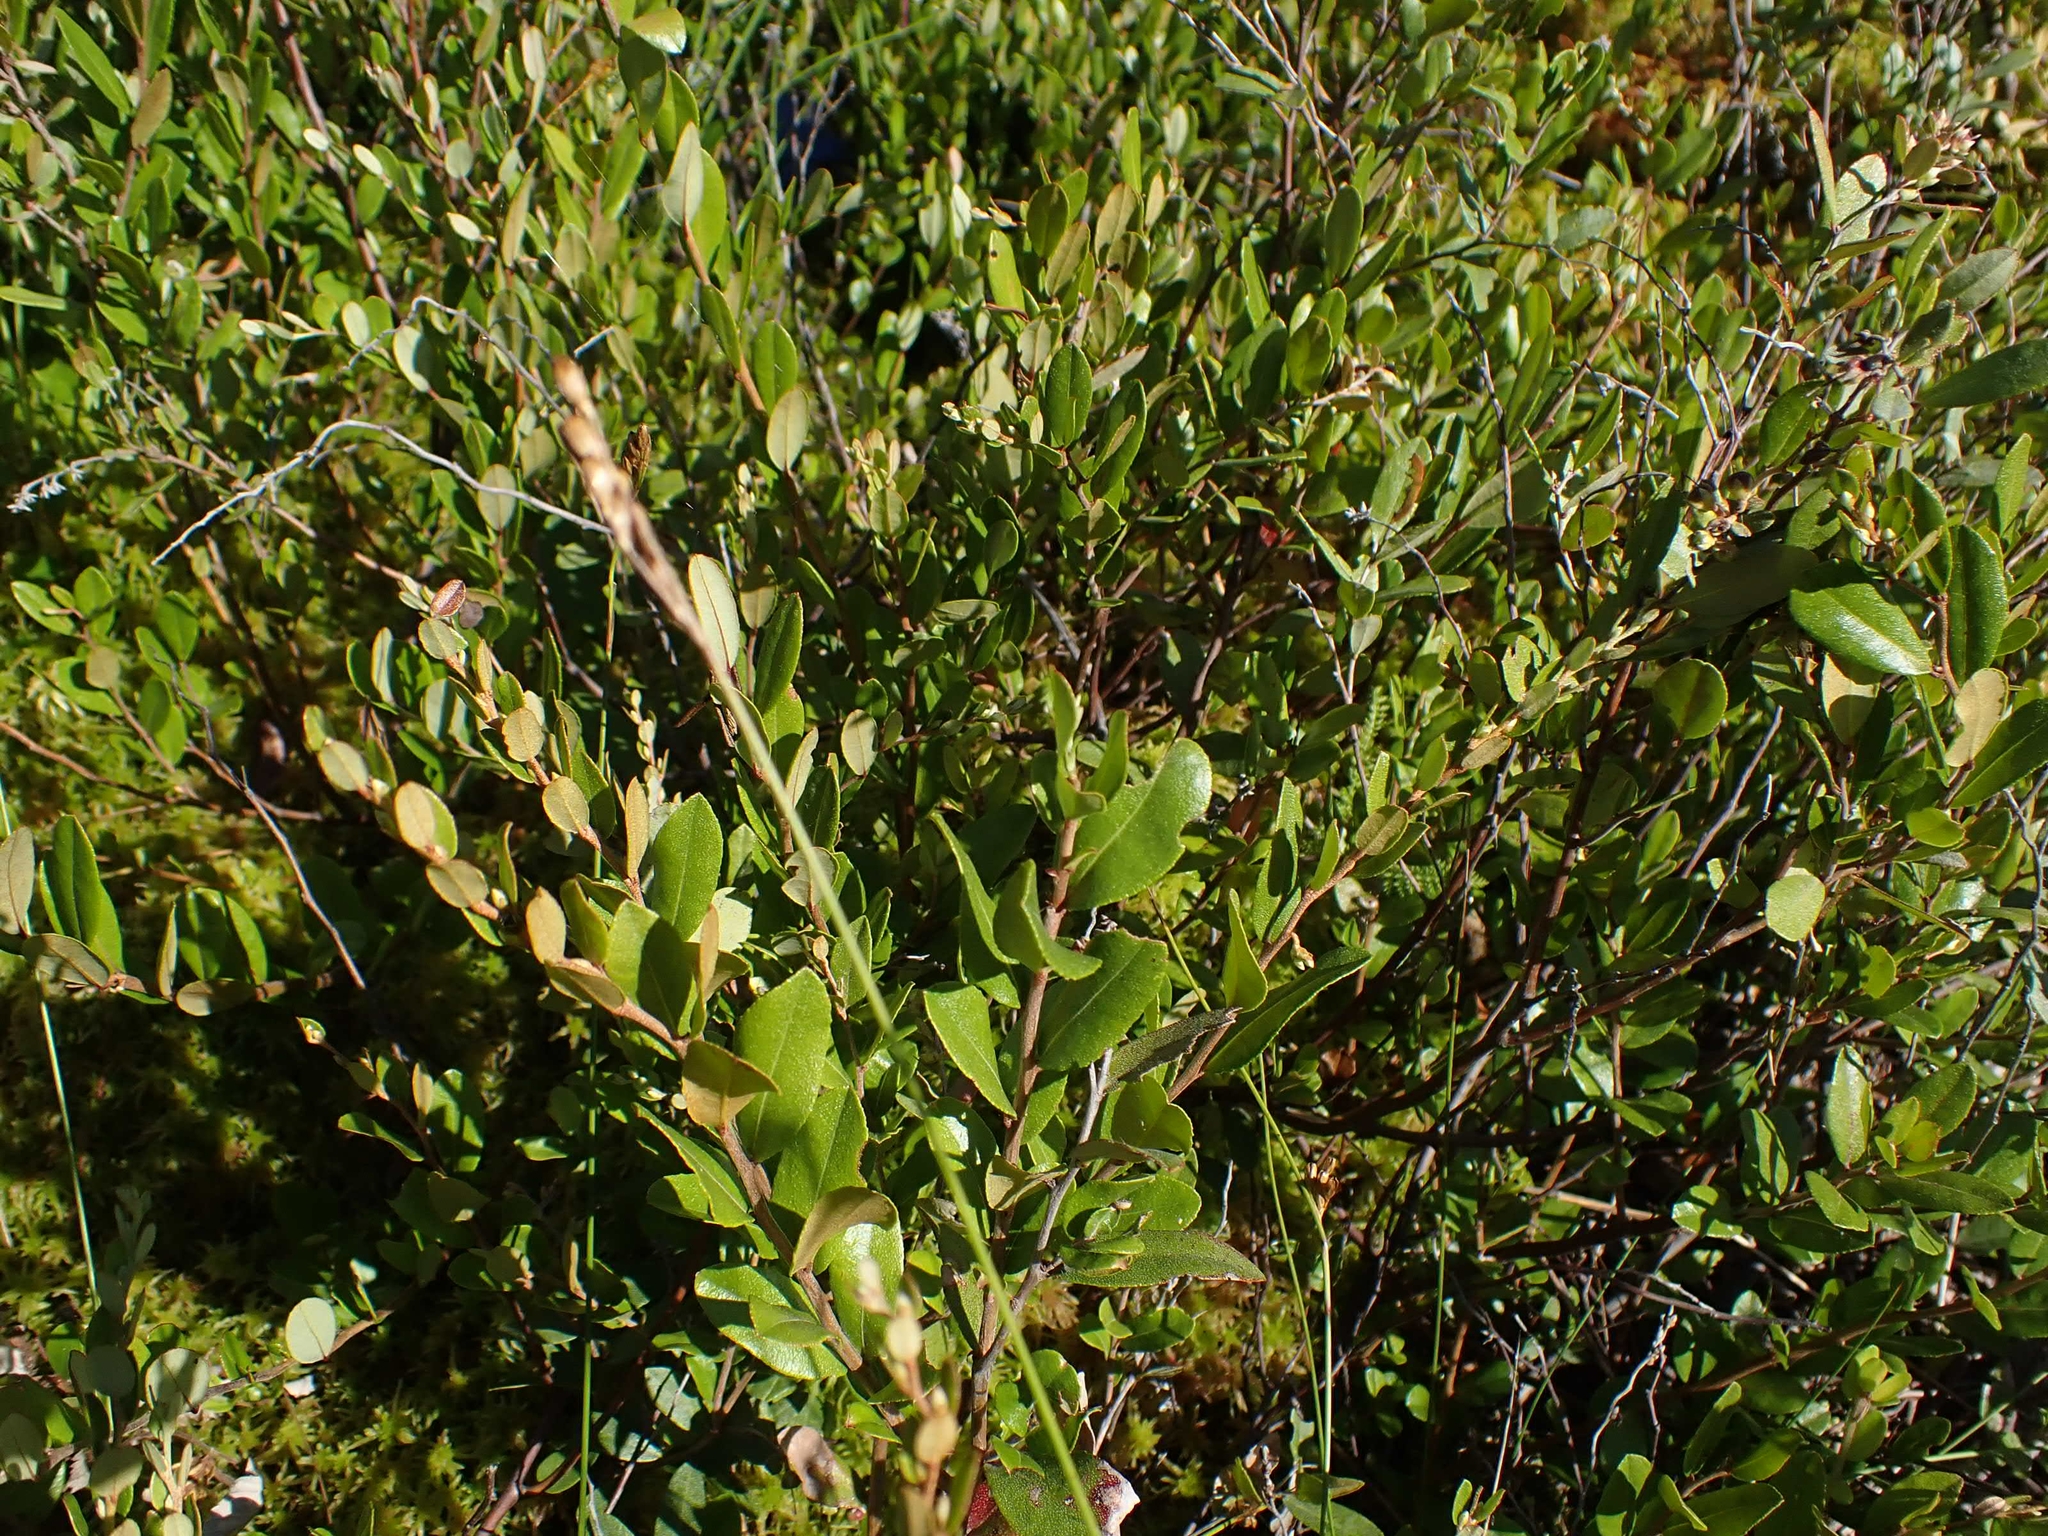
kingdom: Plantae
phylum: Tracheophyta
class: Magnoliopsida
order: Ericales
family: Ericaceae
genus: Chamaedaphne
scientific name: Chamaedaphne calyculata
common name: Leatherleaf
